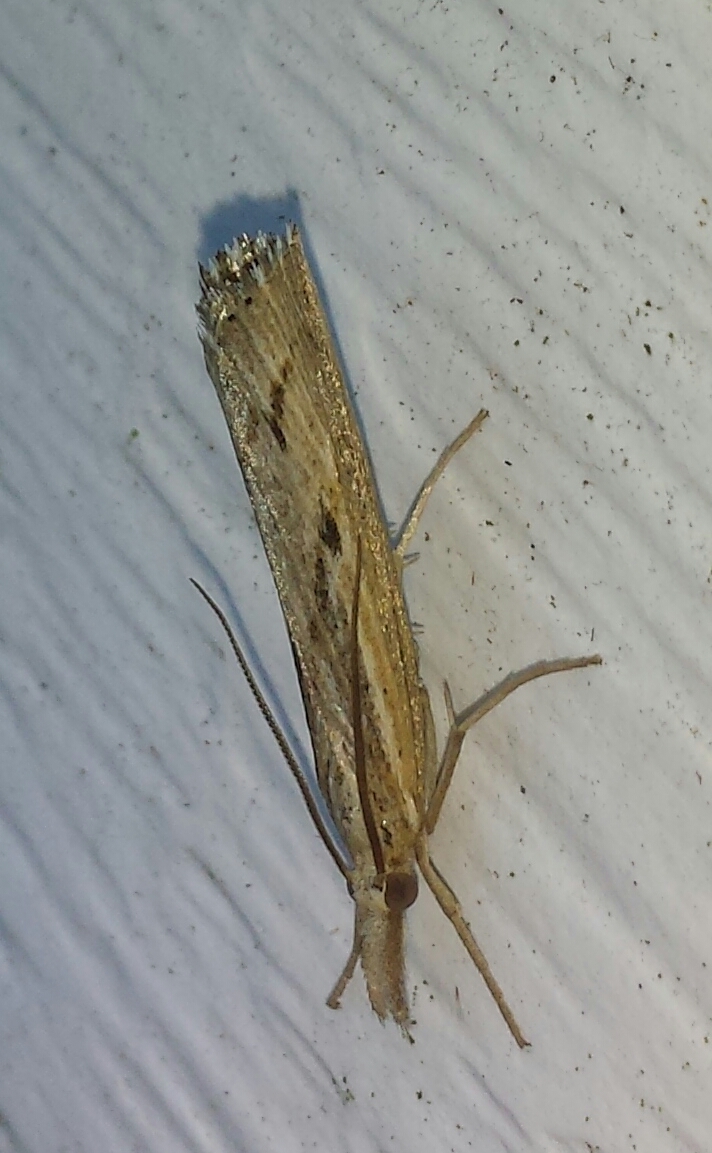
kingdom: Animalia
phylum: Arthropoda
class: Insecta
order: Lepidoptera
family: Crambidae
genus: Pediasia
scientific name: Pediasia trisecta
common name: Sod webworm moth
